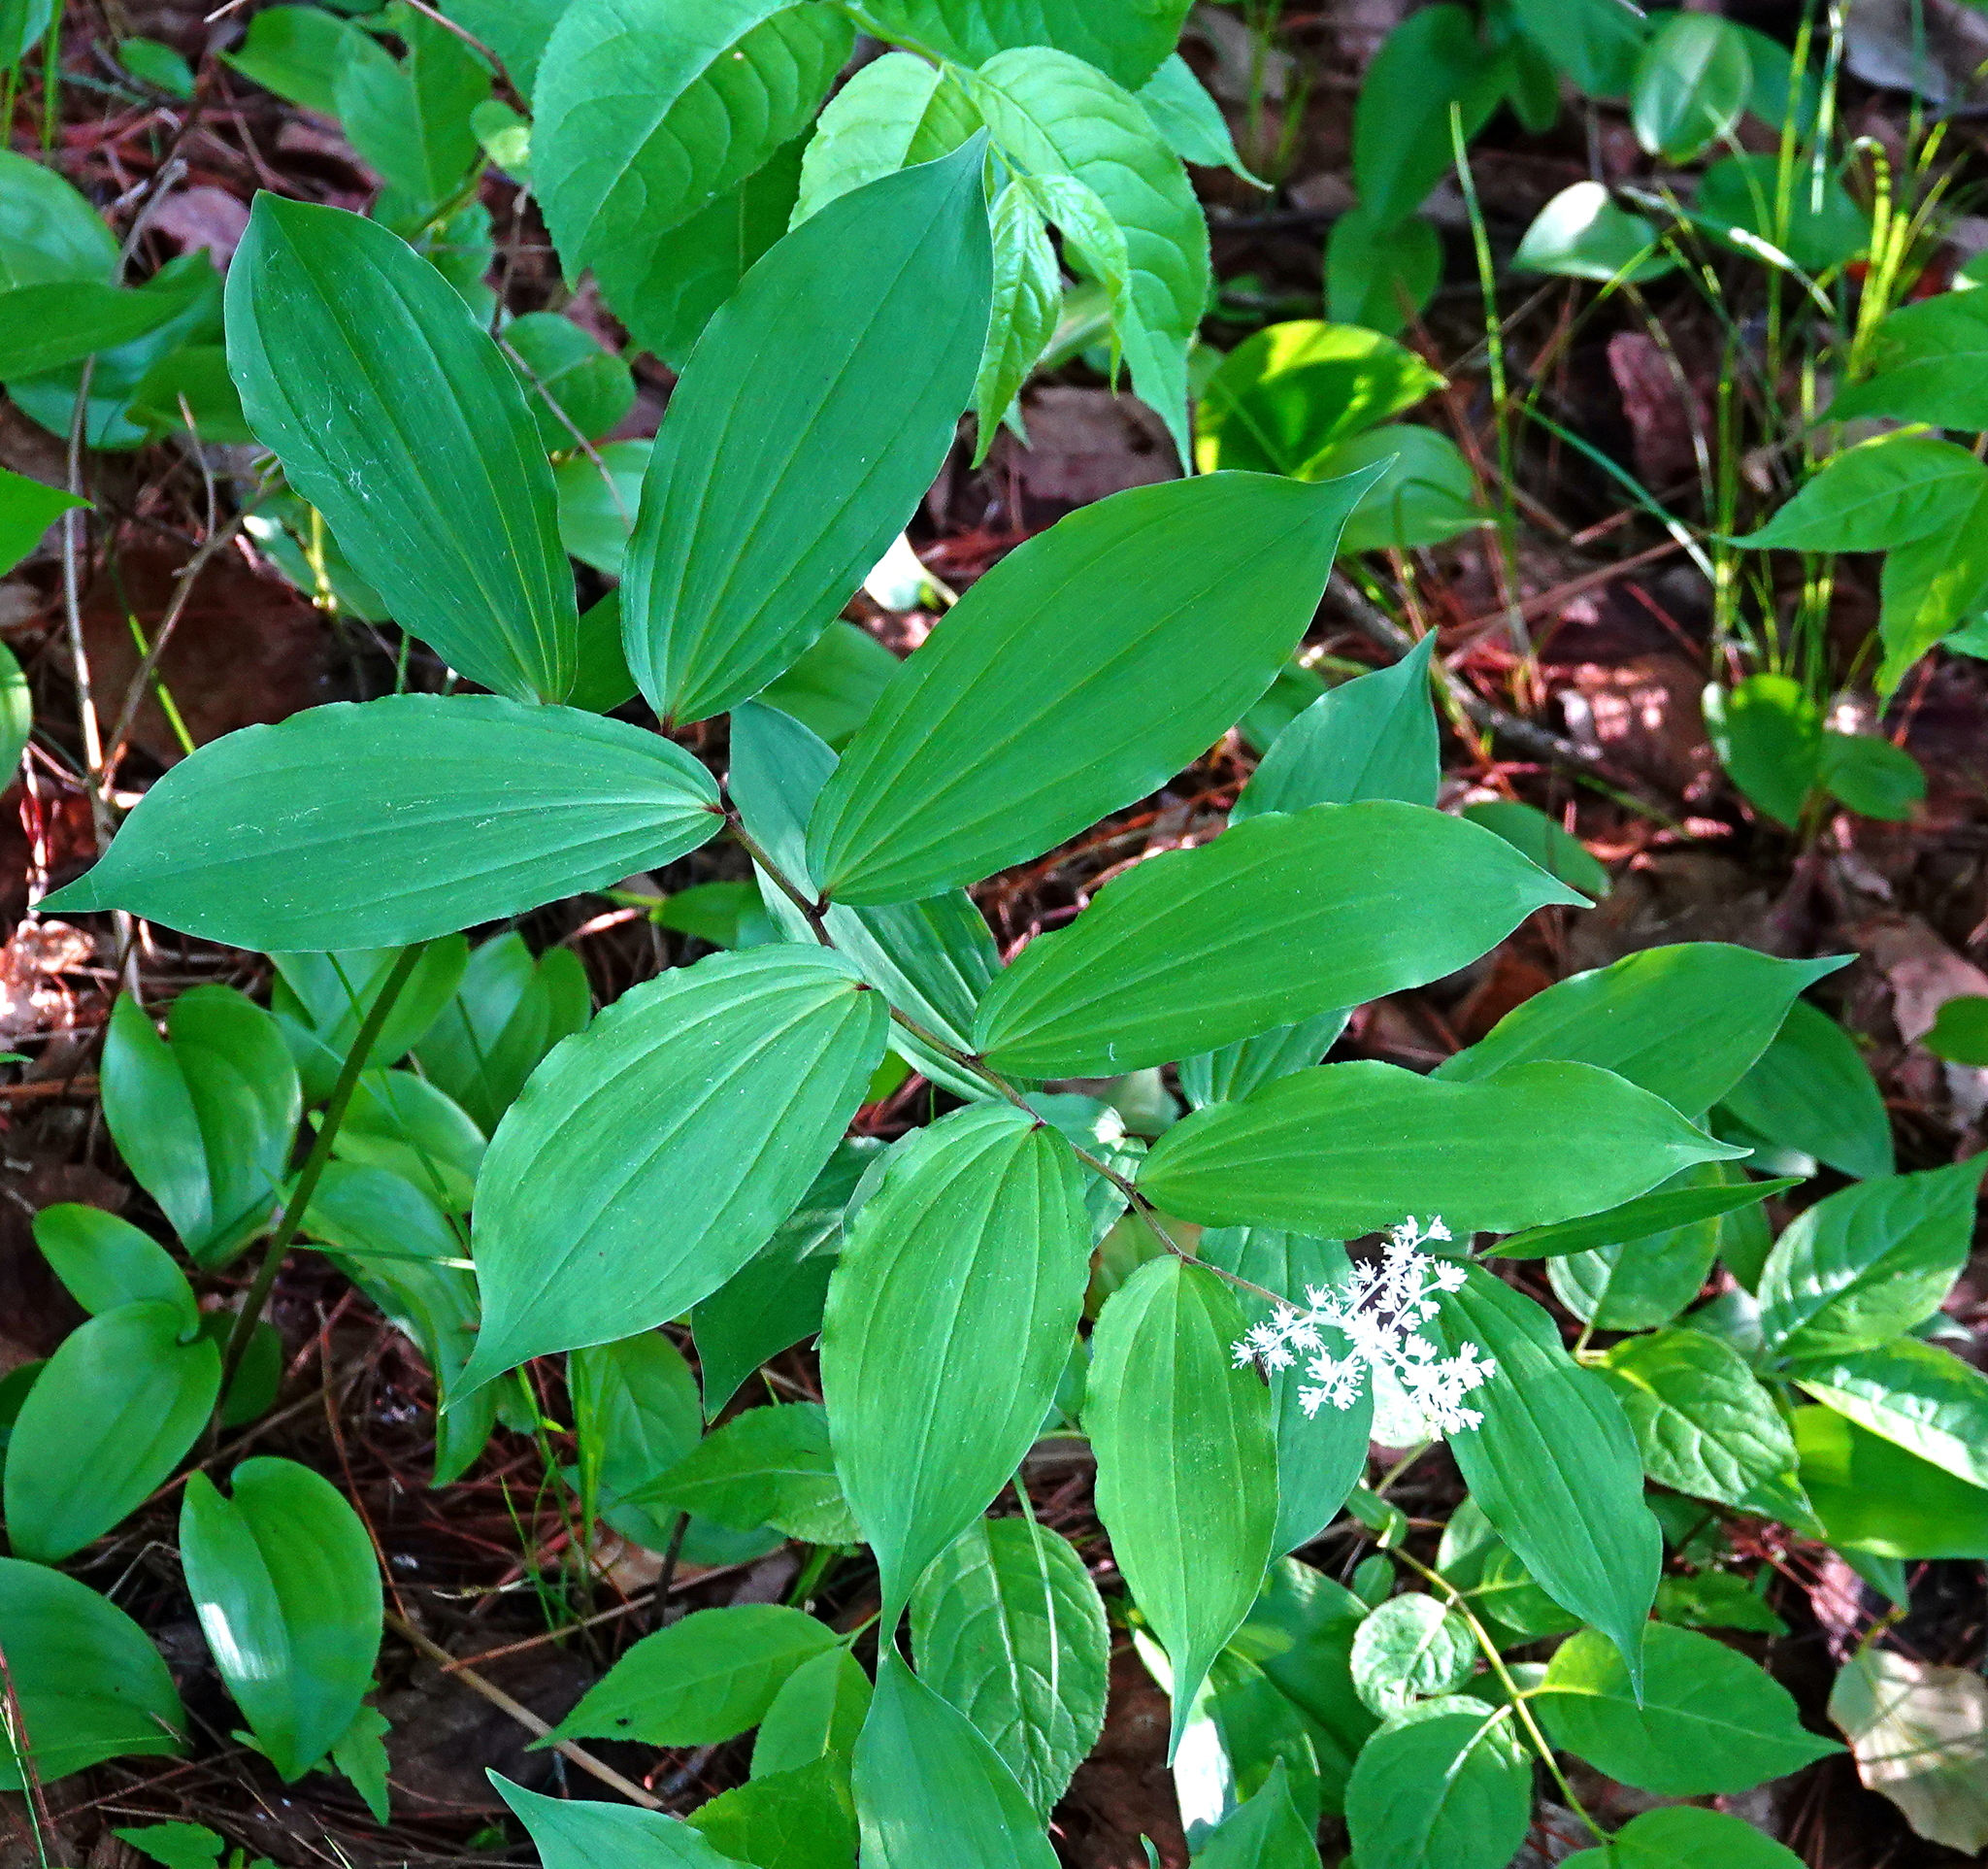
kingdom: Plantae
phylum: Tracheophyta
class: Liliopsida
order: Asparagales
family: Asparagaceae
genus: Maianthemum
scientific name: Maianthemum racemosum
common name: False spikenard
